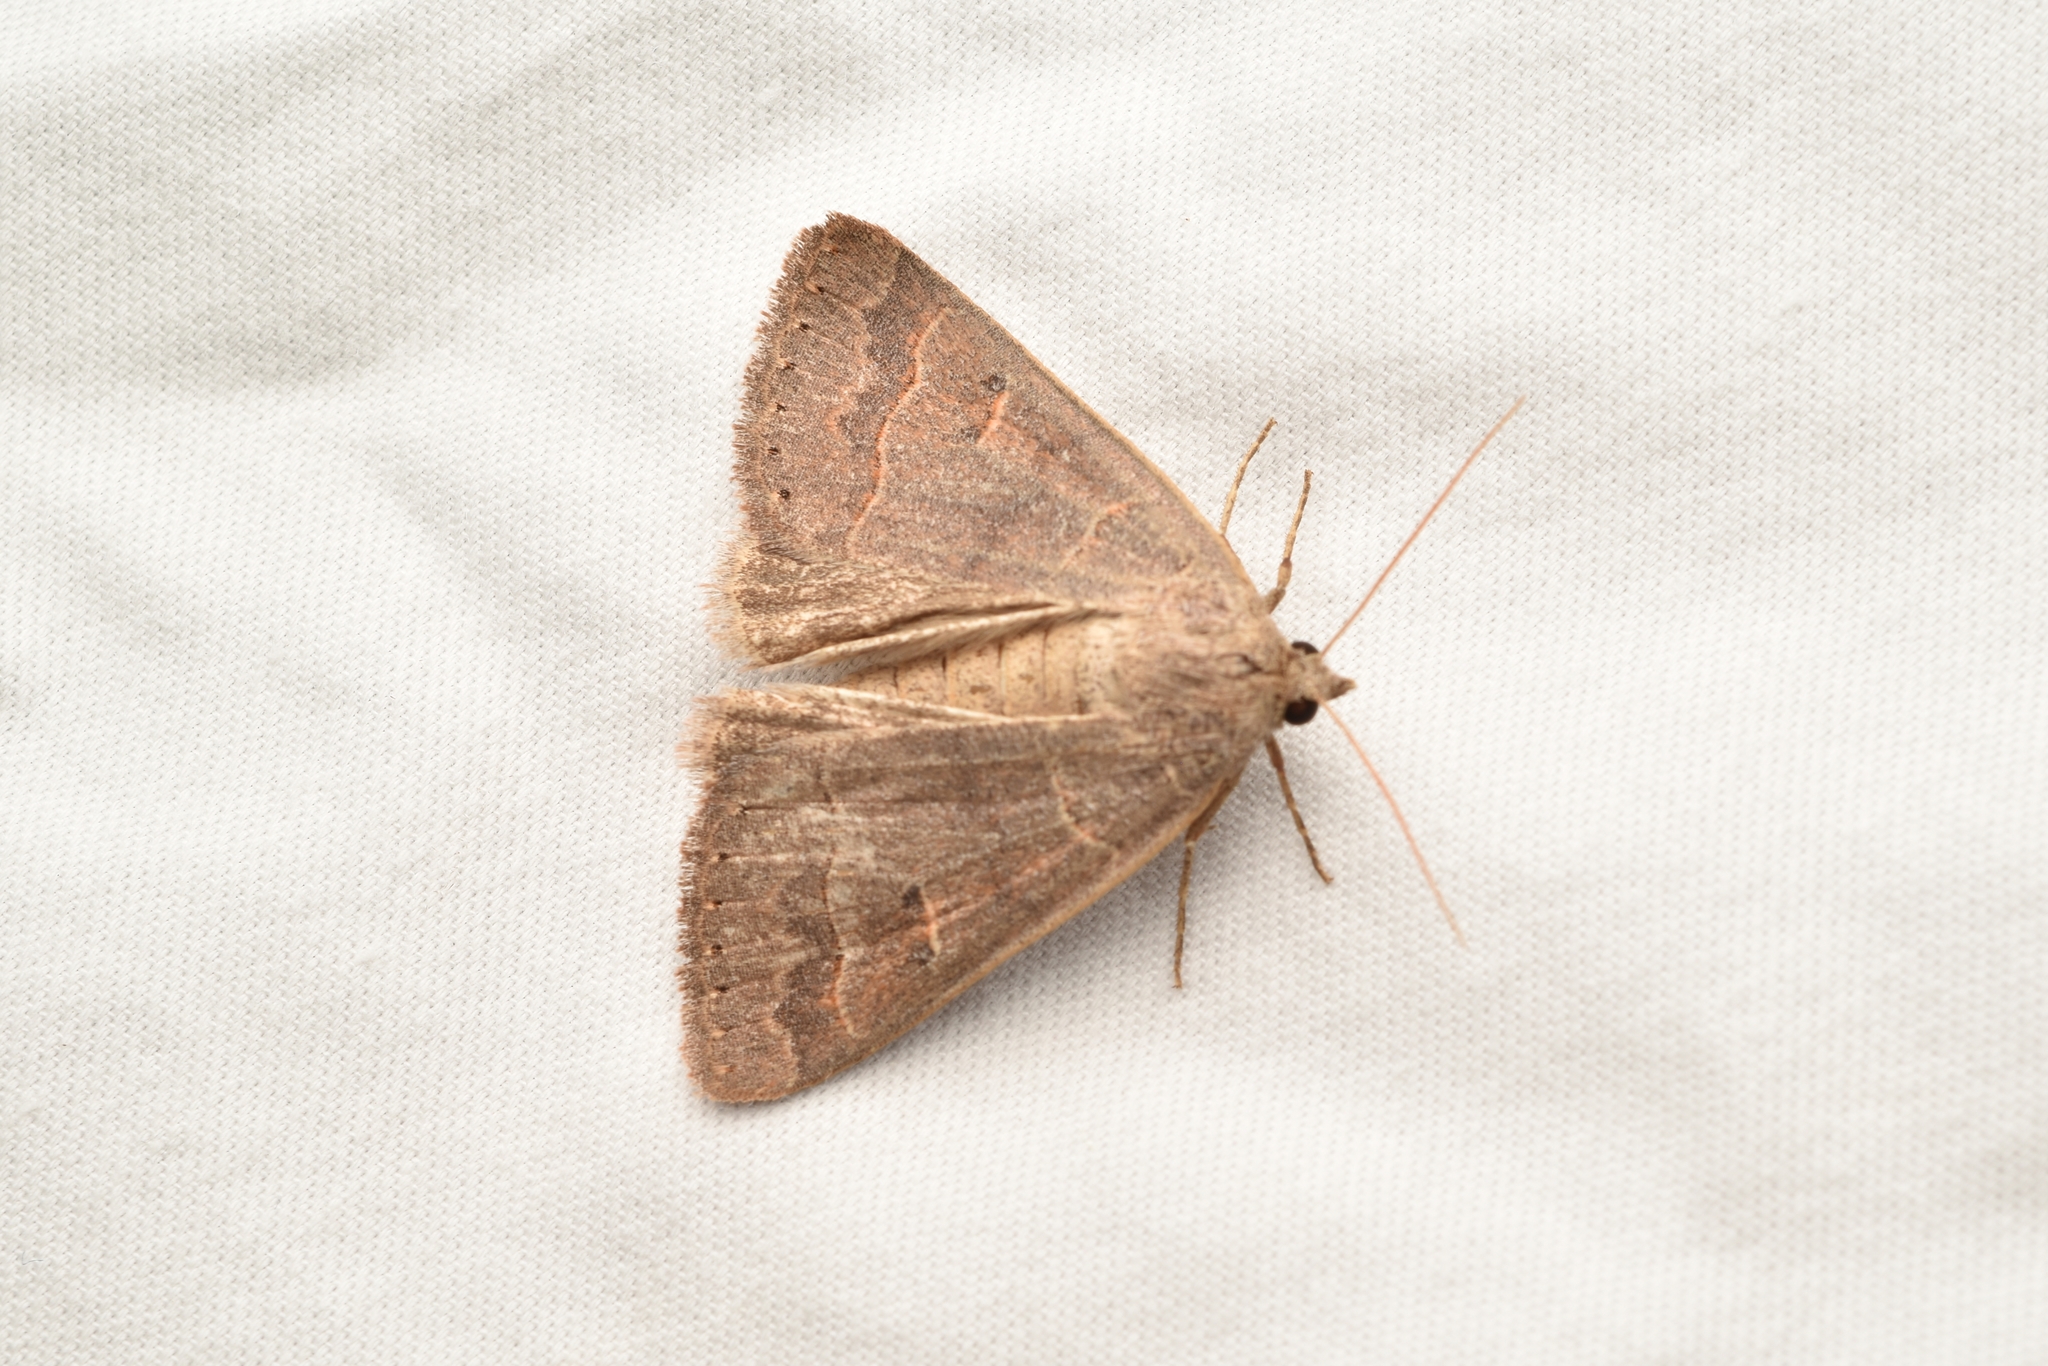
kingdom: Animalia
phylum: Arthropoda
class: Insecta
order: Lepidoptera
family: Erebidae
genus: Phoberia
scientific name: Phoberia atomaris
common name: Common oak moth
